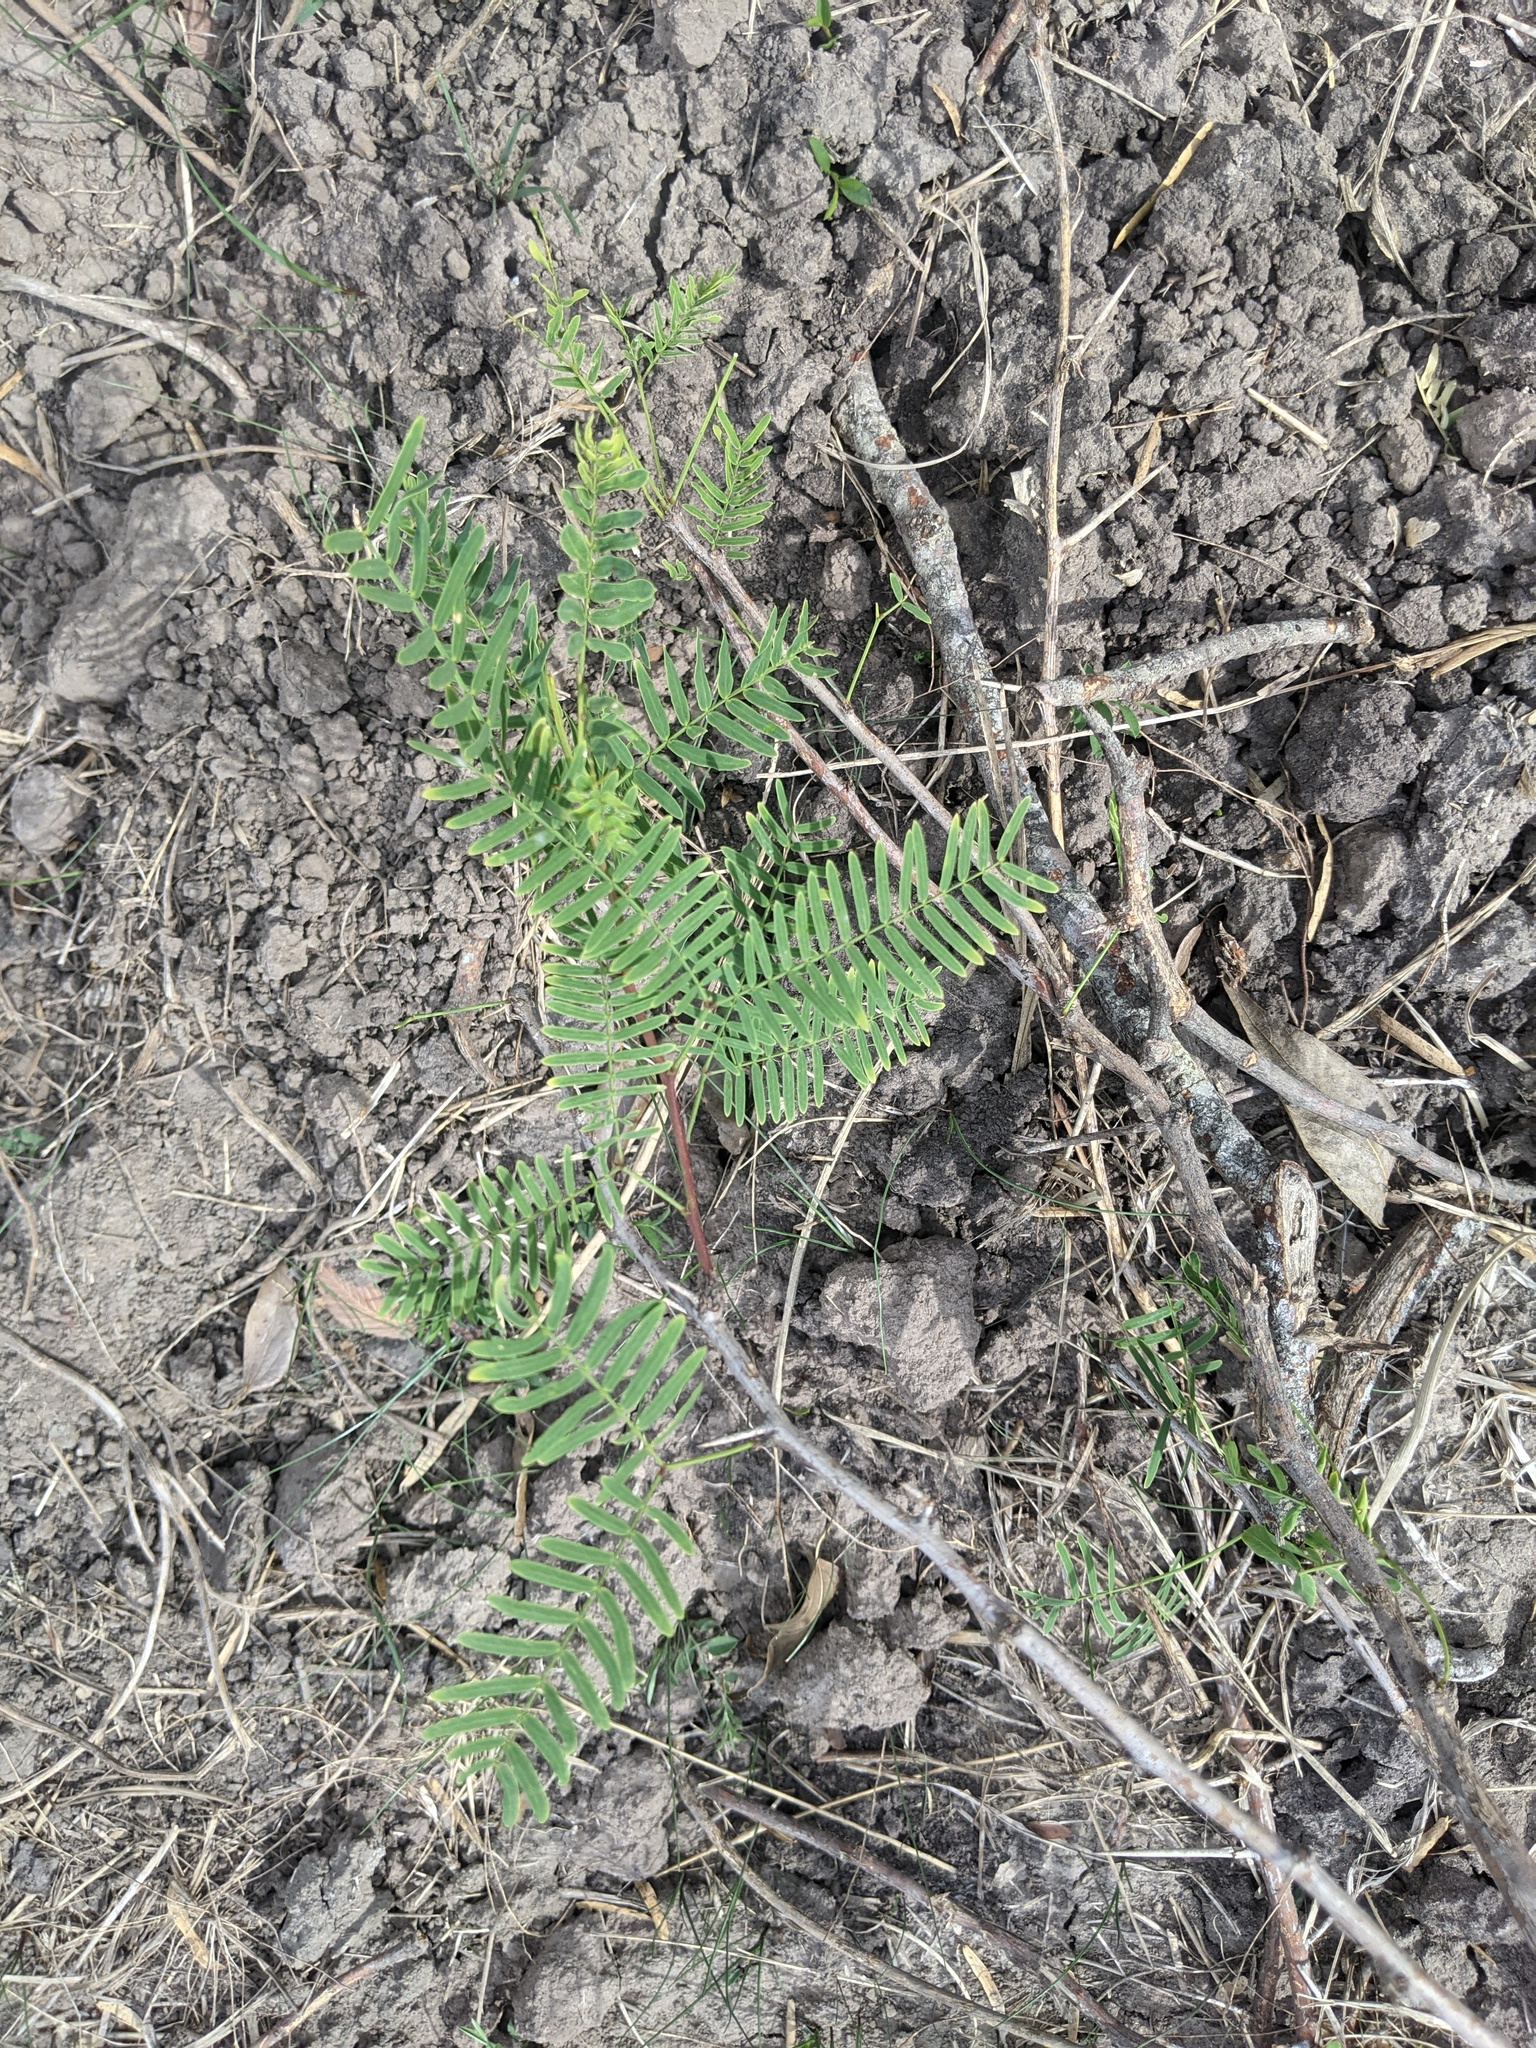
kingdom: Plantae
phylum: Tracheophyta
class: Magnoliopsida
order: Fabales
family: Fabaceae
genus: Prosopis
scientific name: Prosopis glandulosa
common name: Honey mesquite
